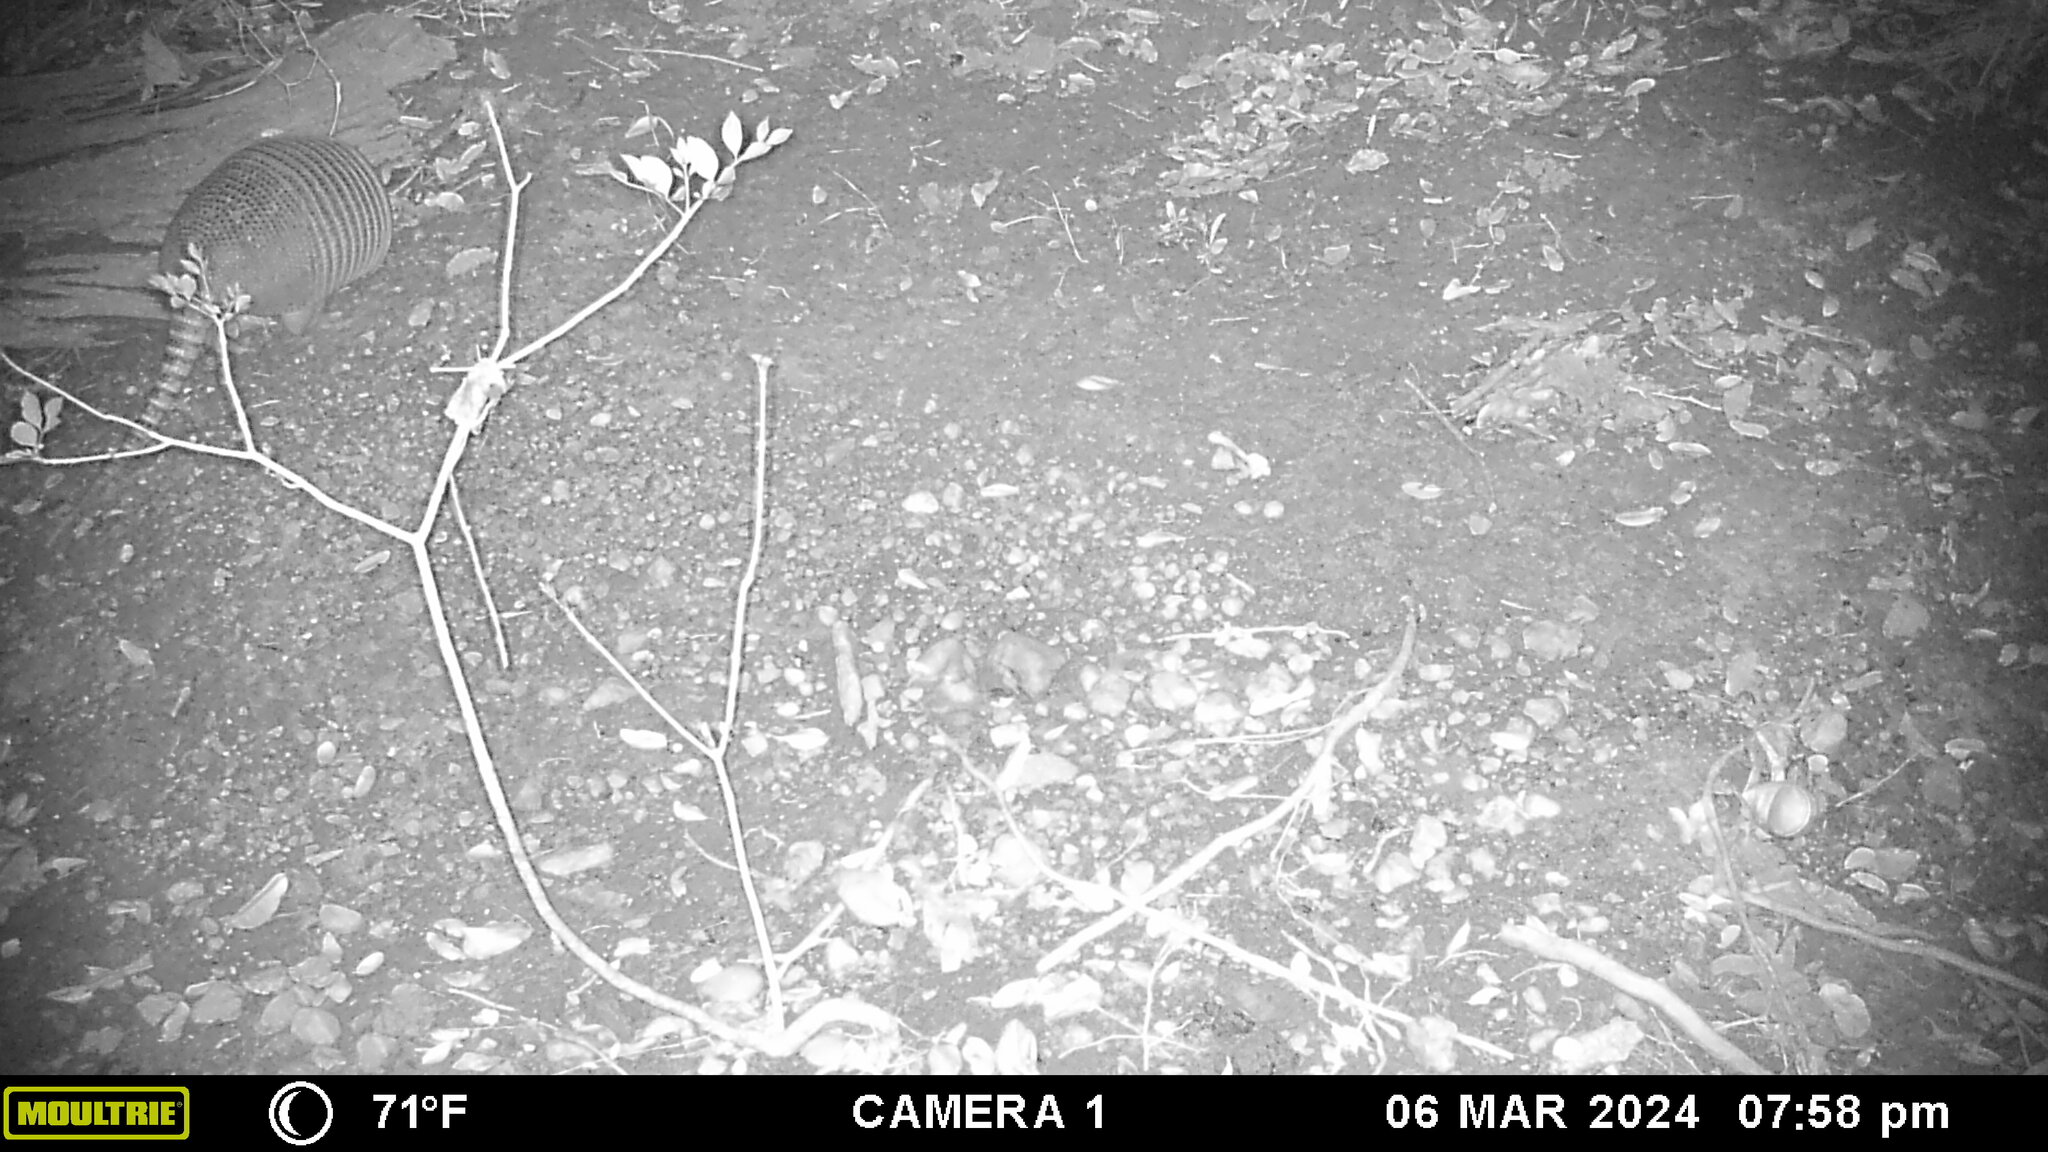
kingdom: Animalia
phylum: Chordata
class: Mammalia
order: Cingulata
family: Dasypodidae
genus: Dasypus
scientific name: Dasypus novemcinctus
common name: Nine-banded armadillo
